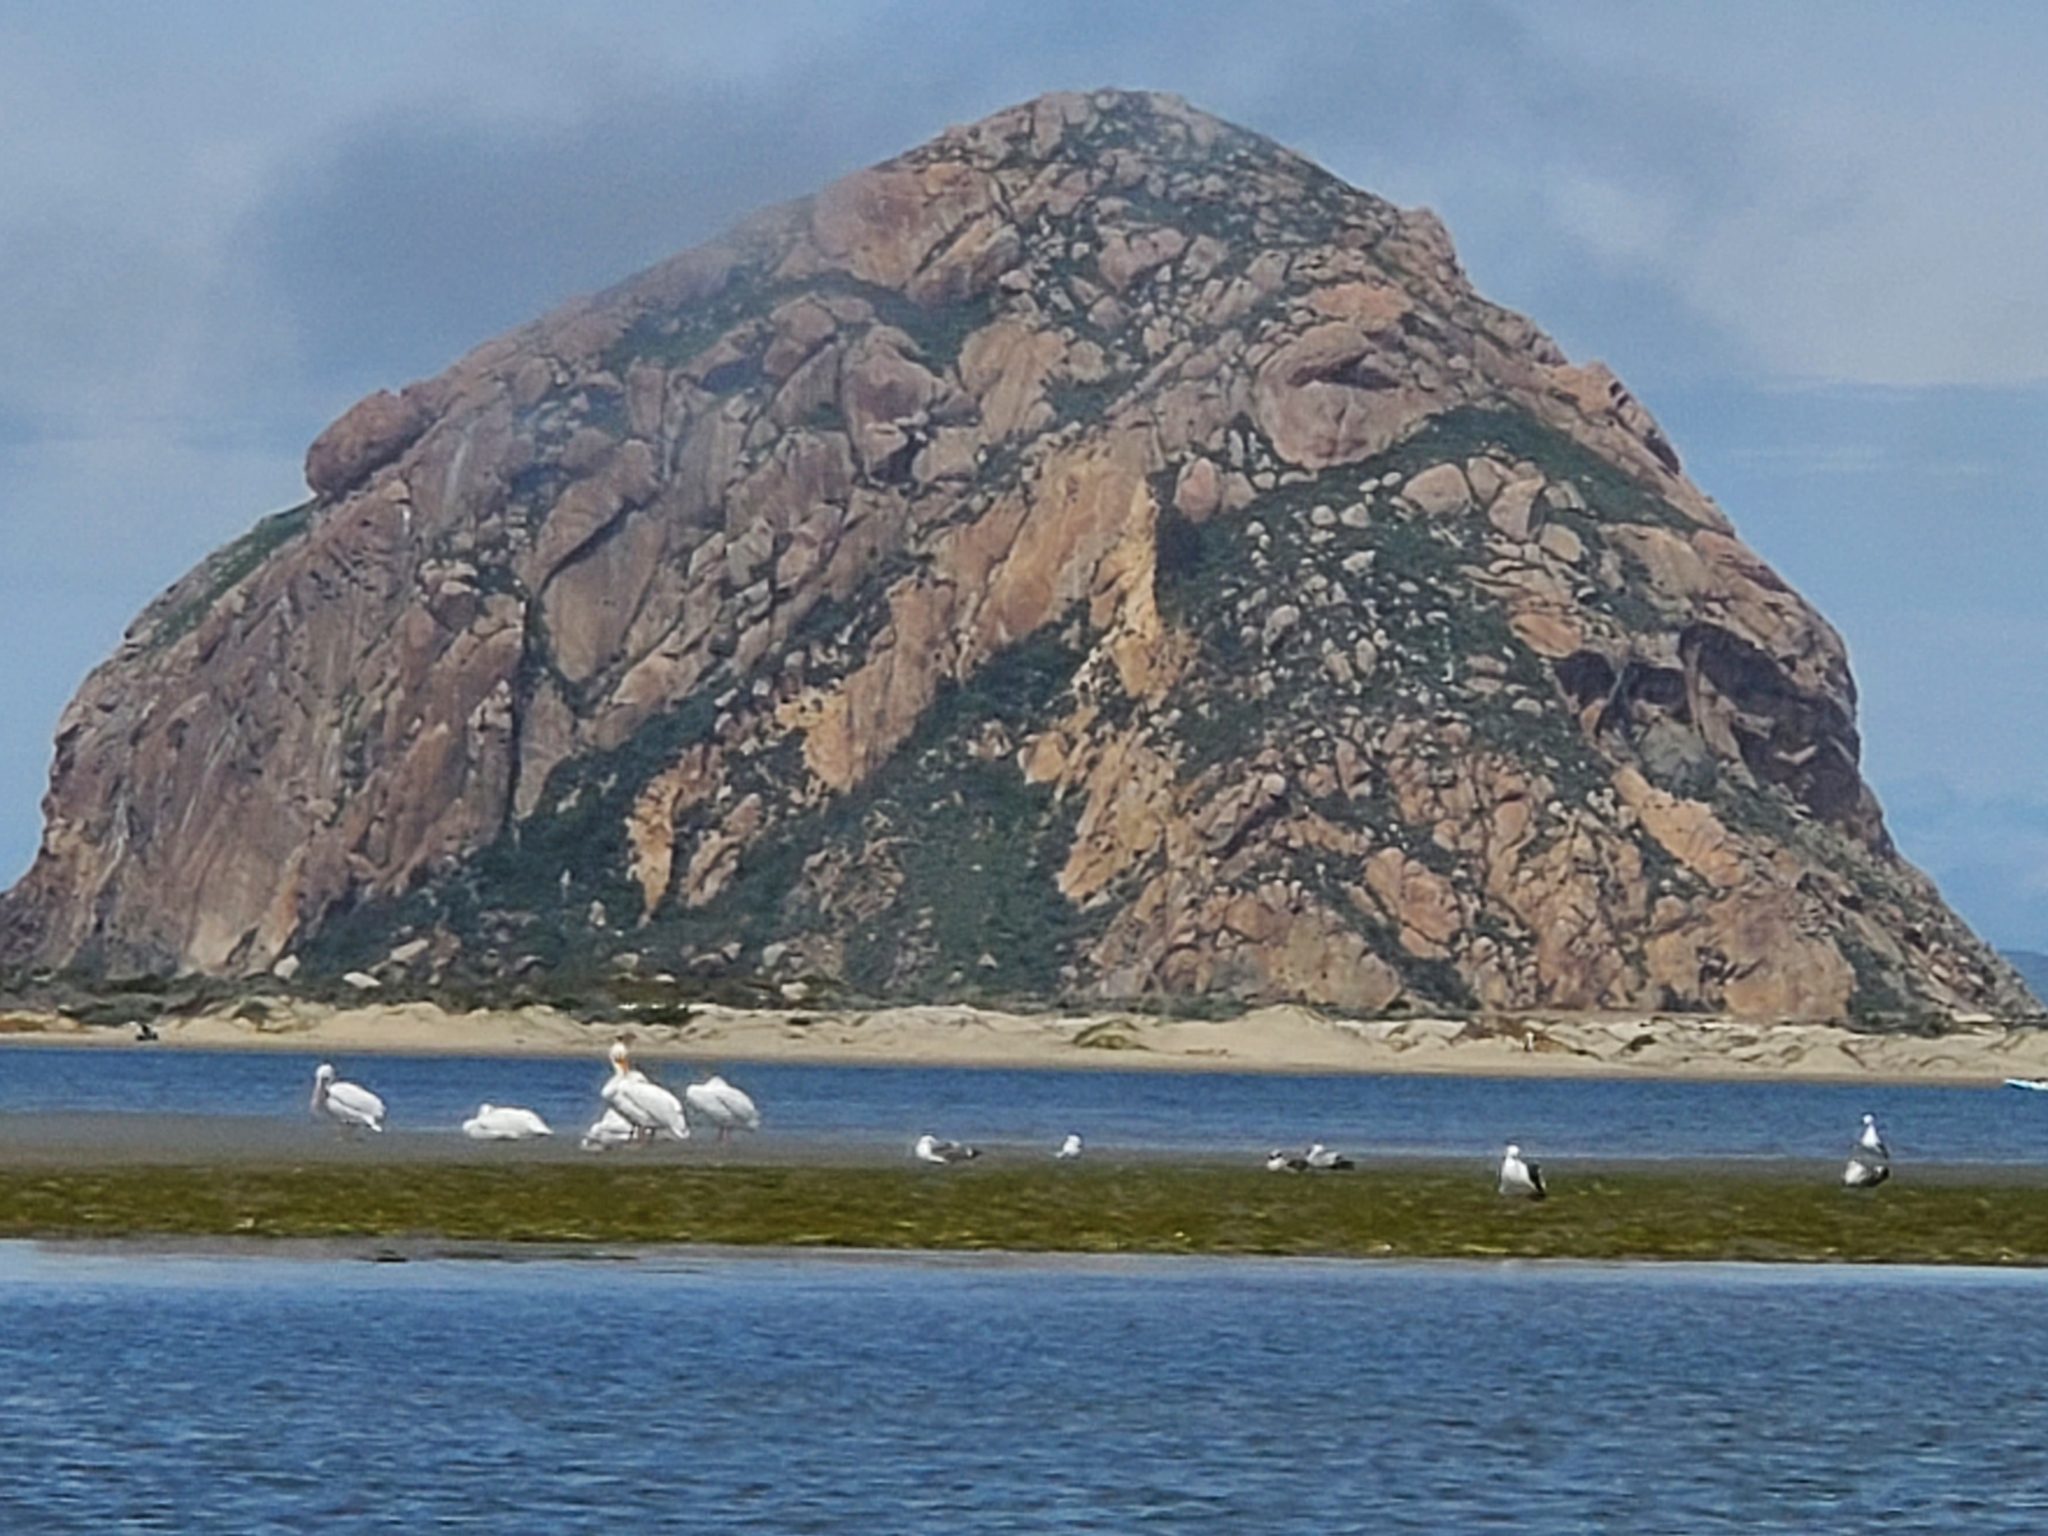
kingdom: Animalia
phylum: Chordata
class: Aves
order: Pelecaniformes
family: Pelecanidae
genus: Pelecanus
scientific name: Pelecanus erythrorhynchos
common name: American white pelican
